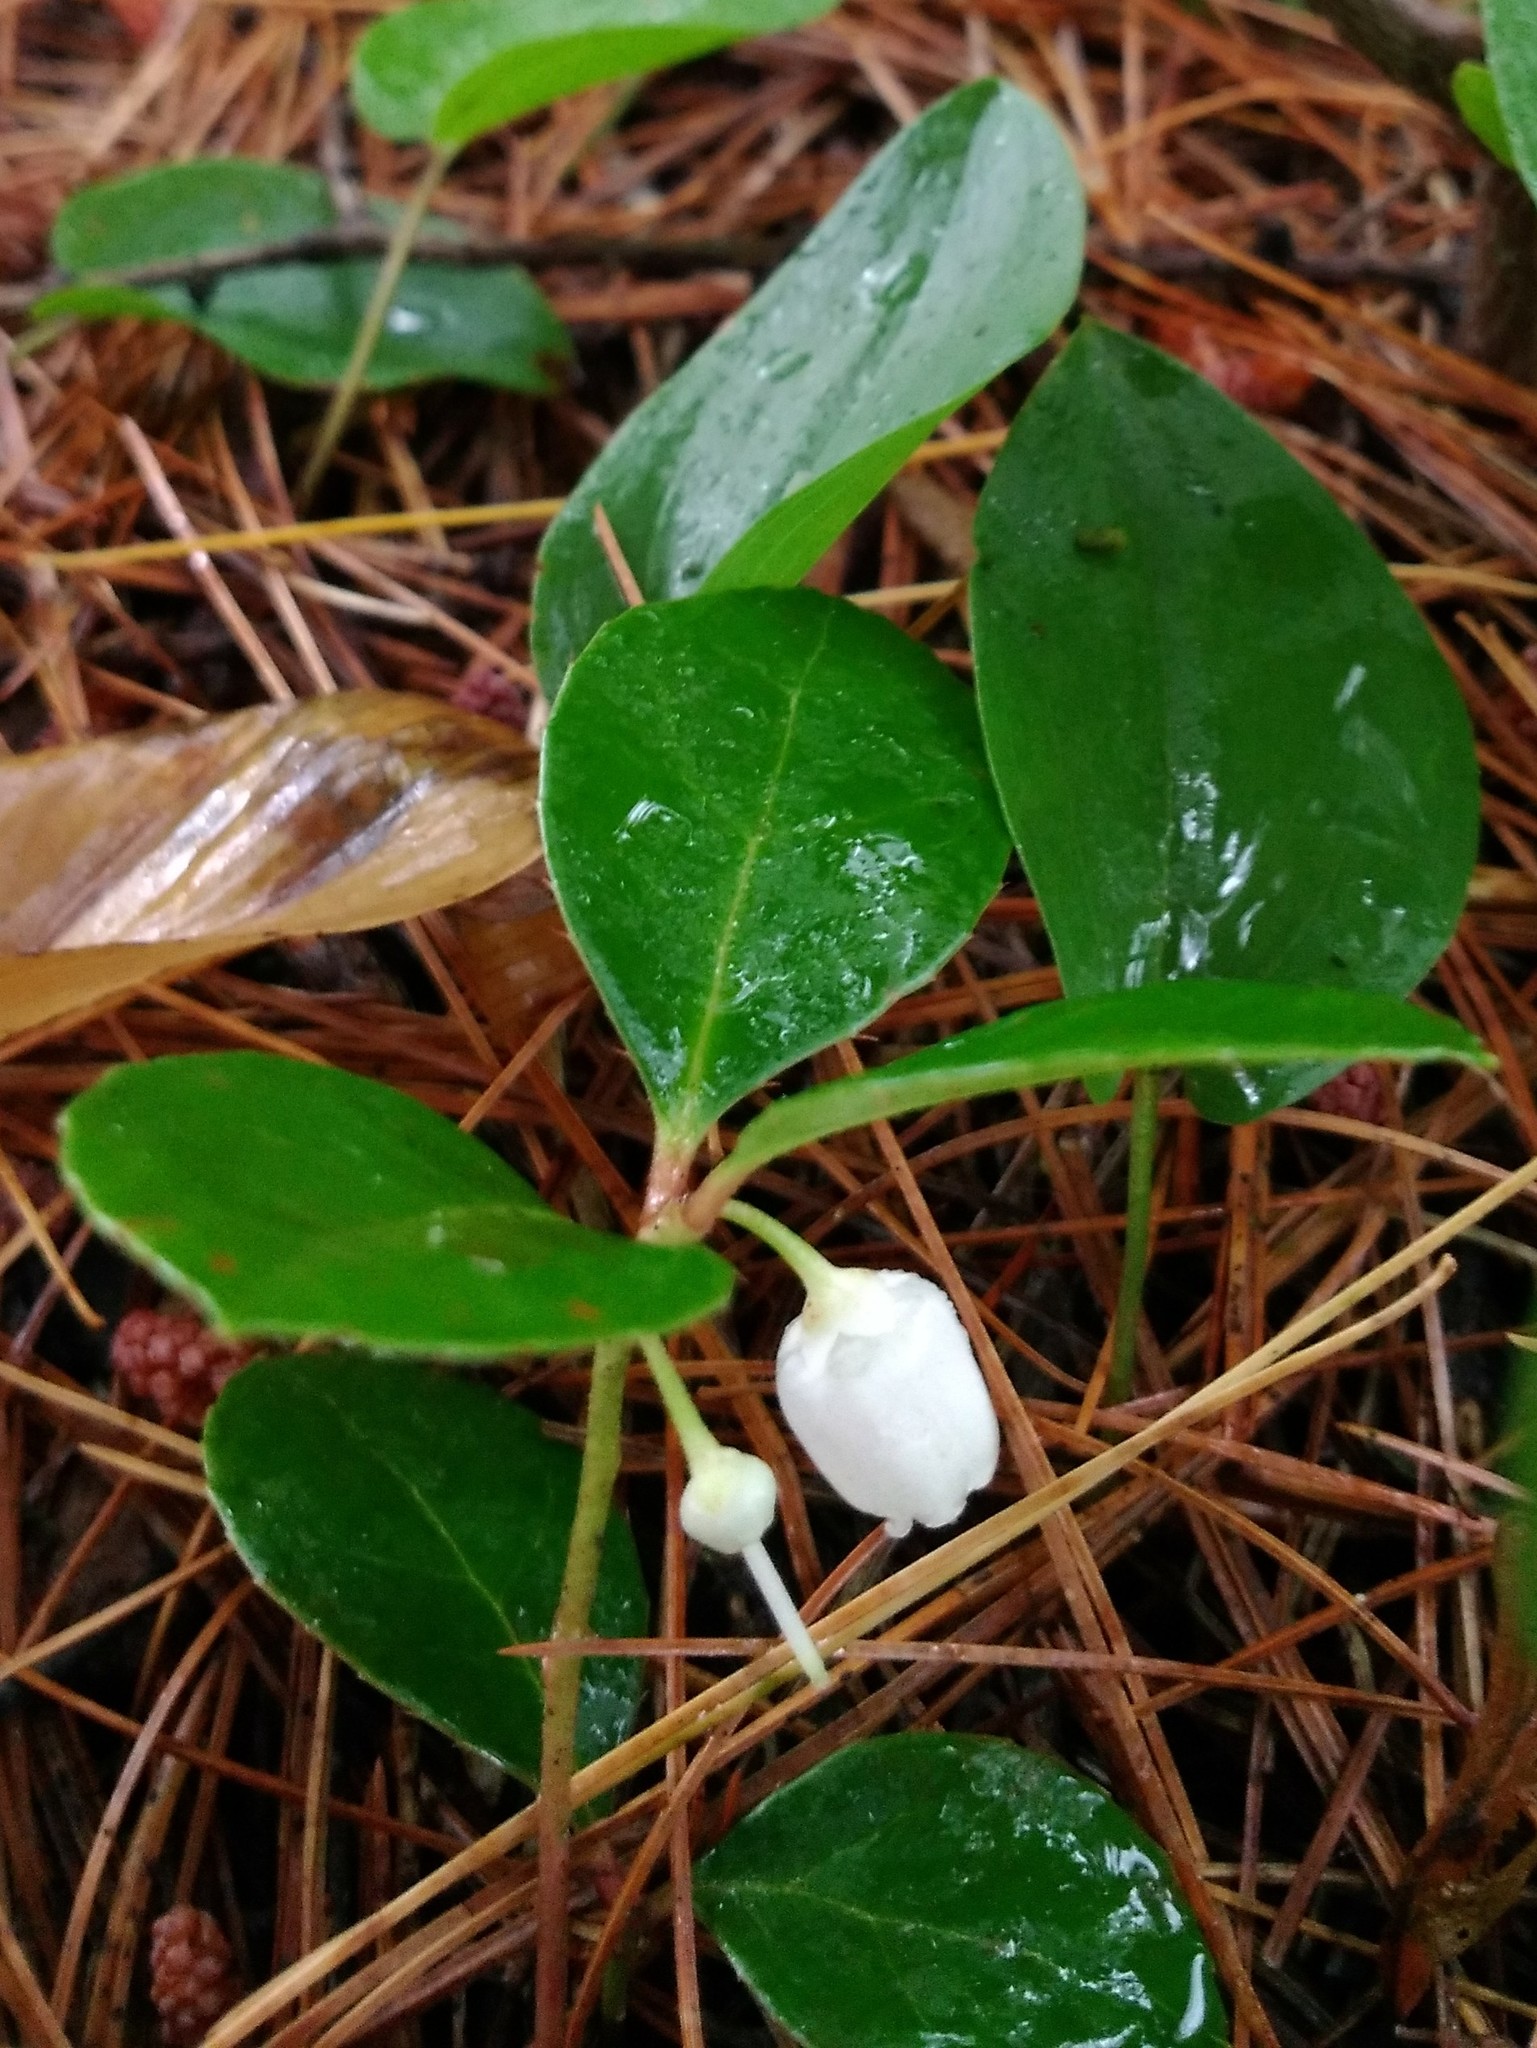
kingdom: Plantae
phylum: Tracheophyta
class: Magnoliopsida
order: Ericales
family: Ericaceae
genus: Gaultheria
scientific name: Gaultheria procumbens
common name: Checkerberry
